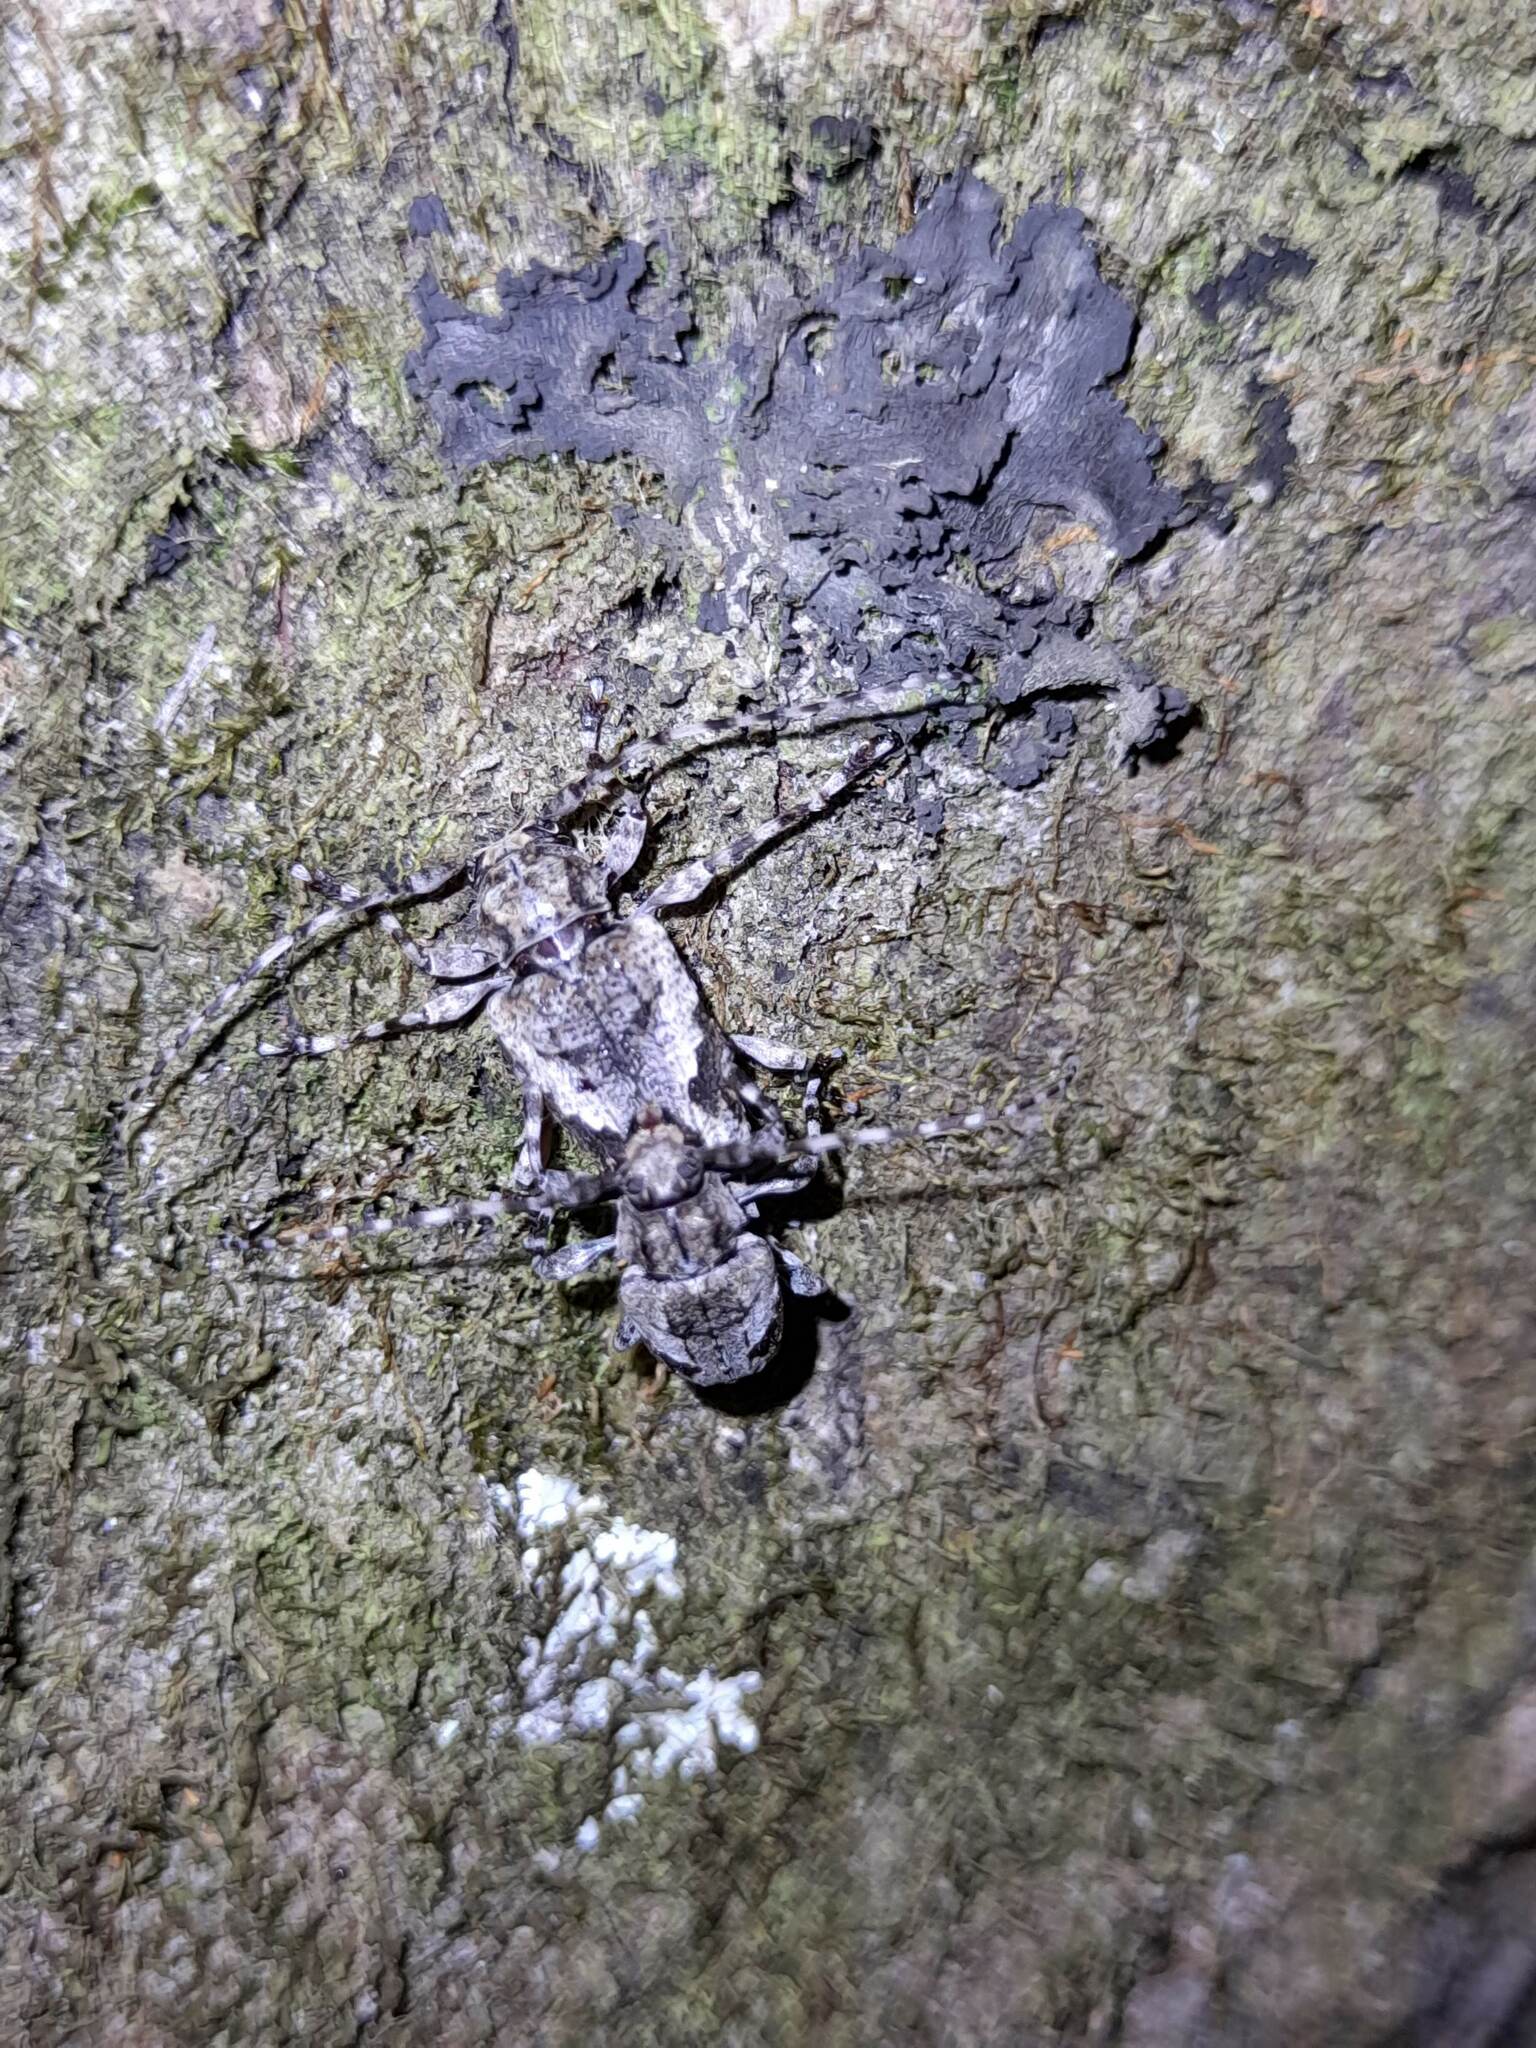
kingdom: Animalia
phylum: Arthropoda
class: Insecta
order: Coleoptera
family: Cerambycidae
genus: Psapharochrus
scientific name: Psapharochrus jaspideus
